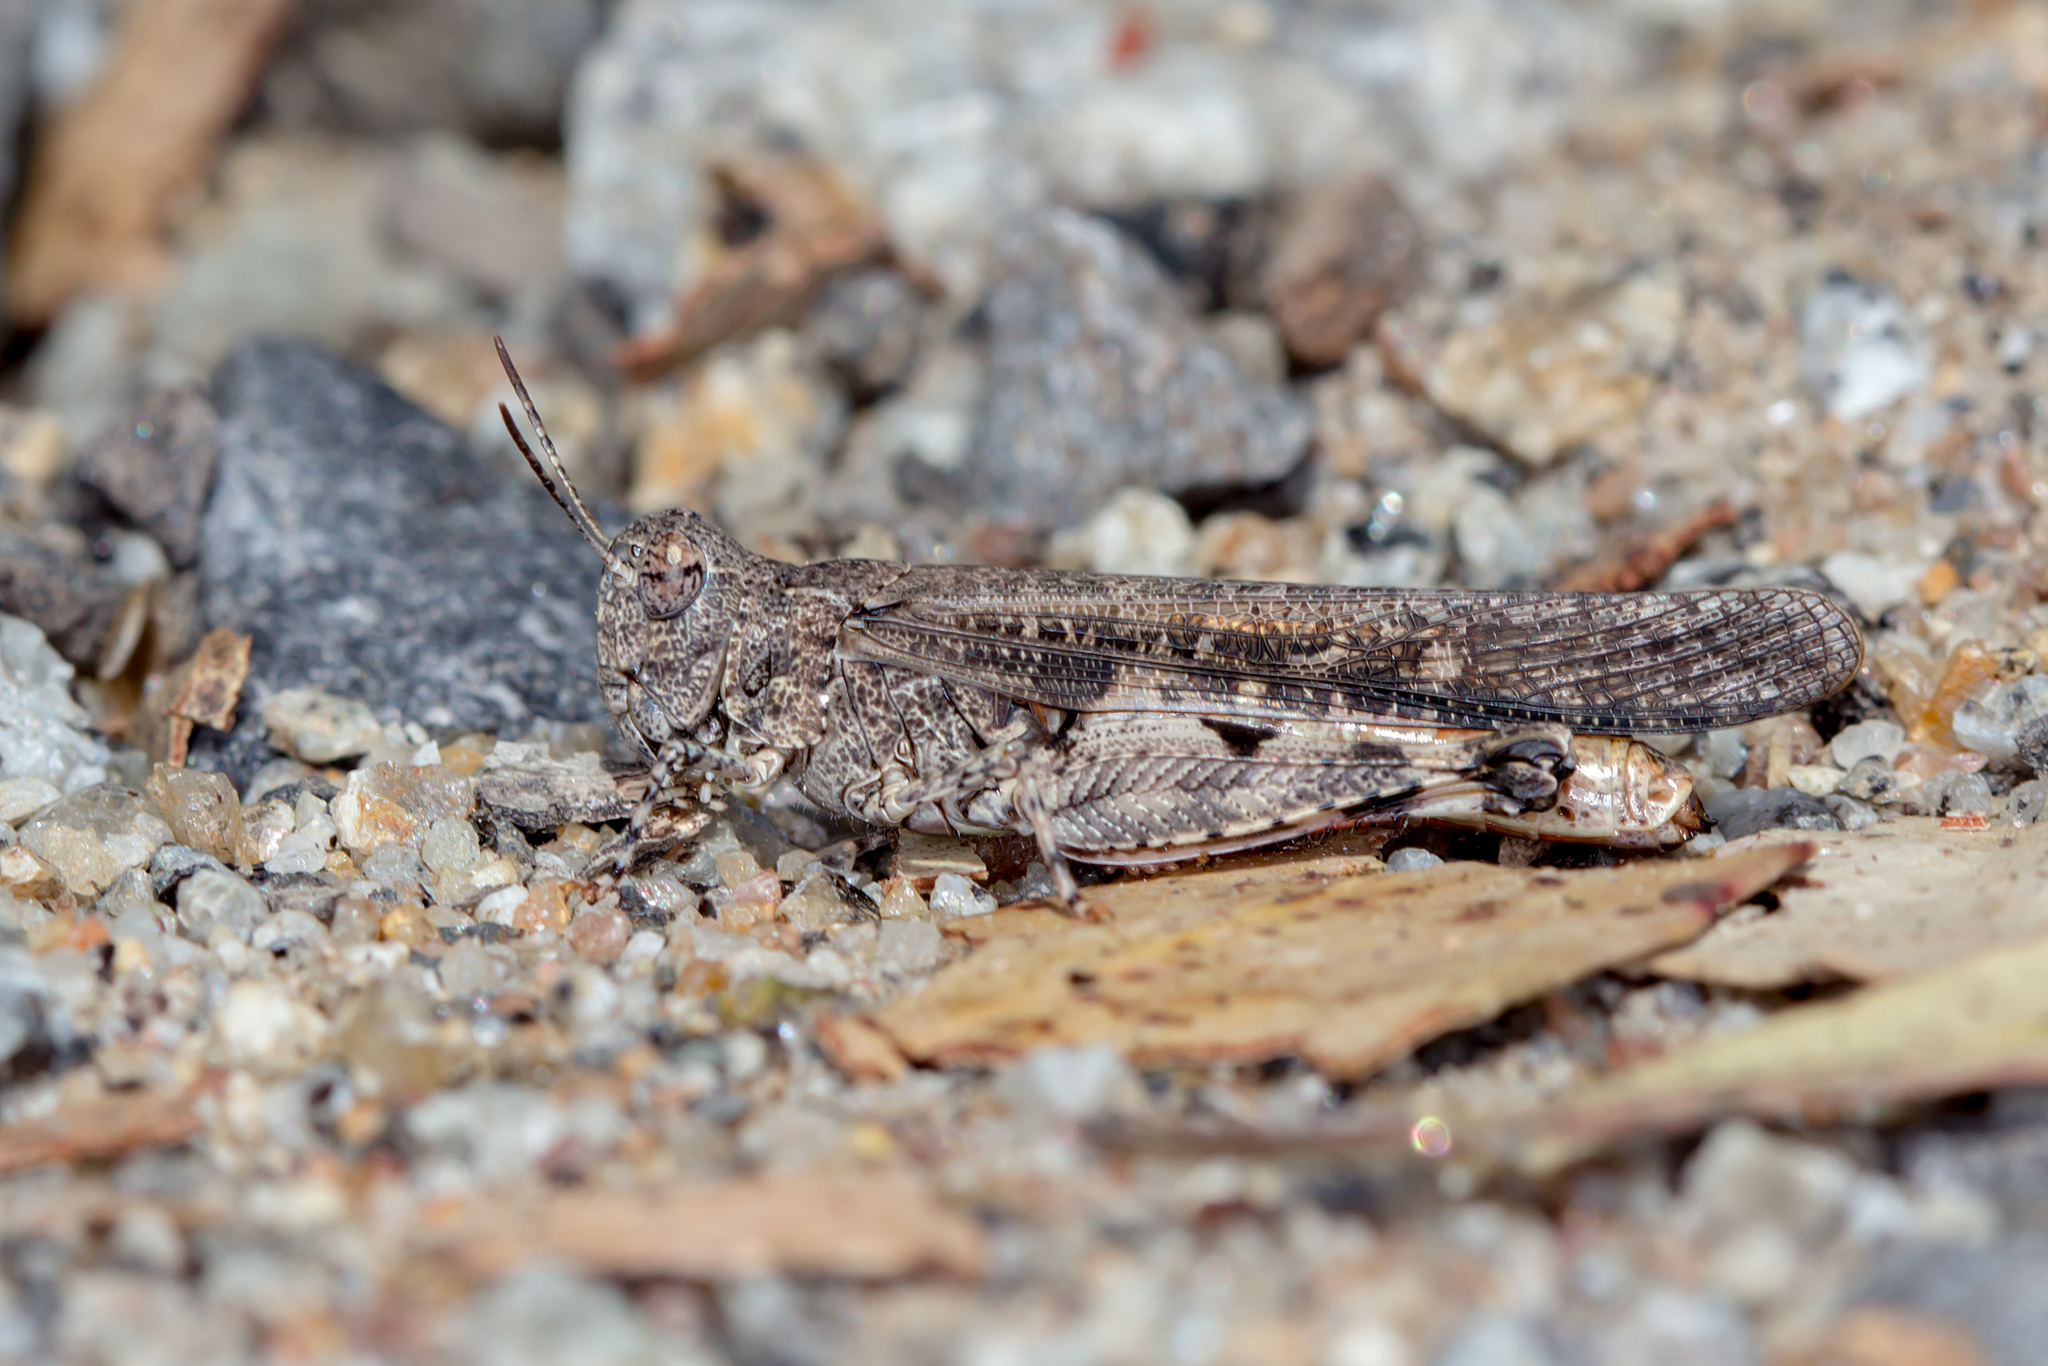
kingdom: Animalia
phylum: Arthropoda
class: Insecta
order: Orthoptera
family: Acrididae
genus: Austroicetes
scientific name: Austroicetes pusilla
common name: Confusing austroicetes
